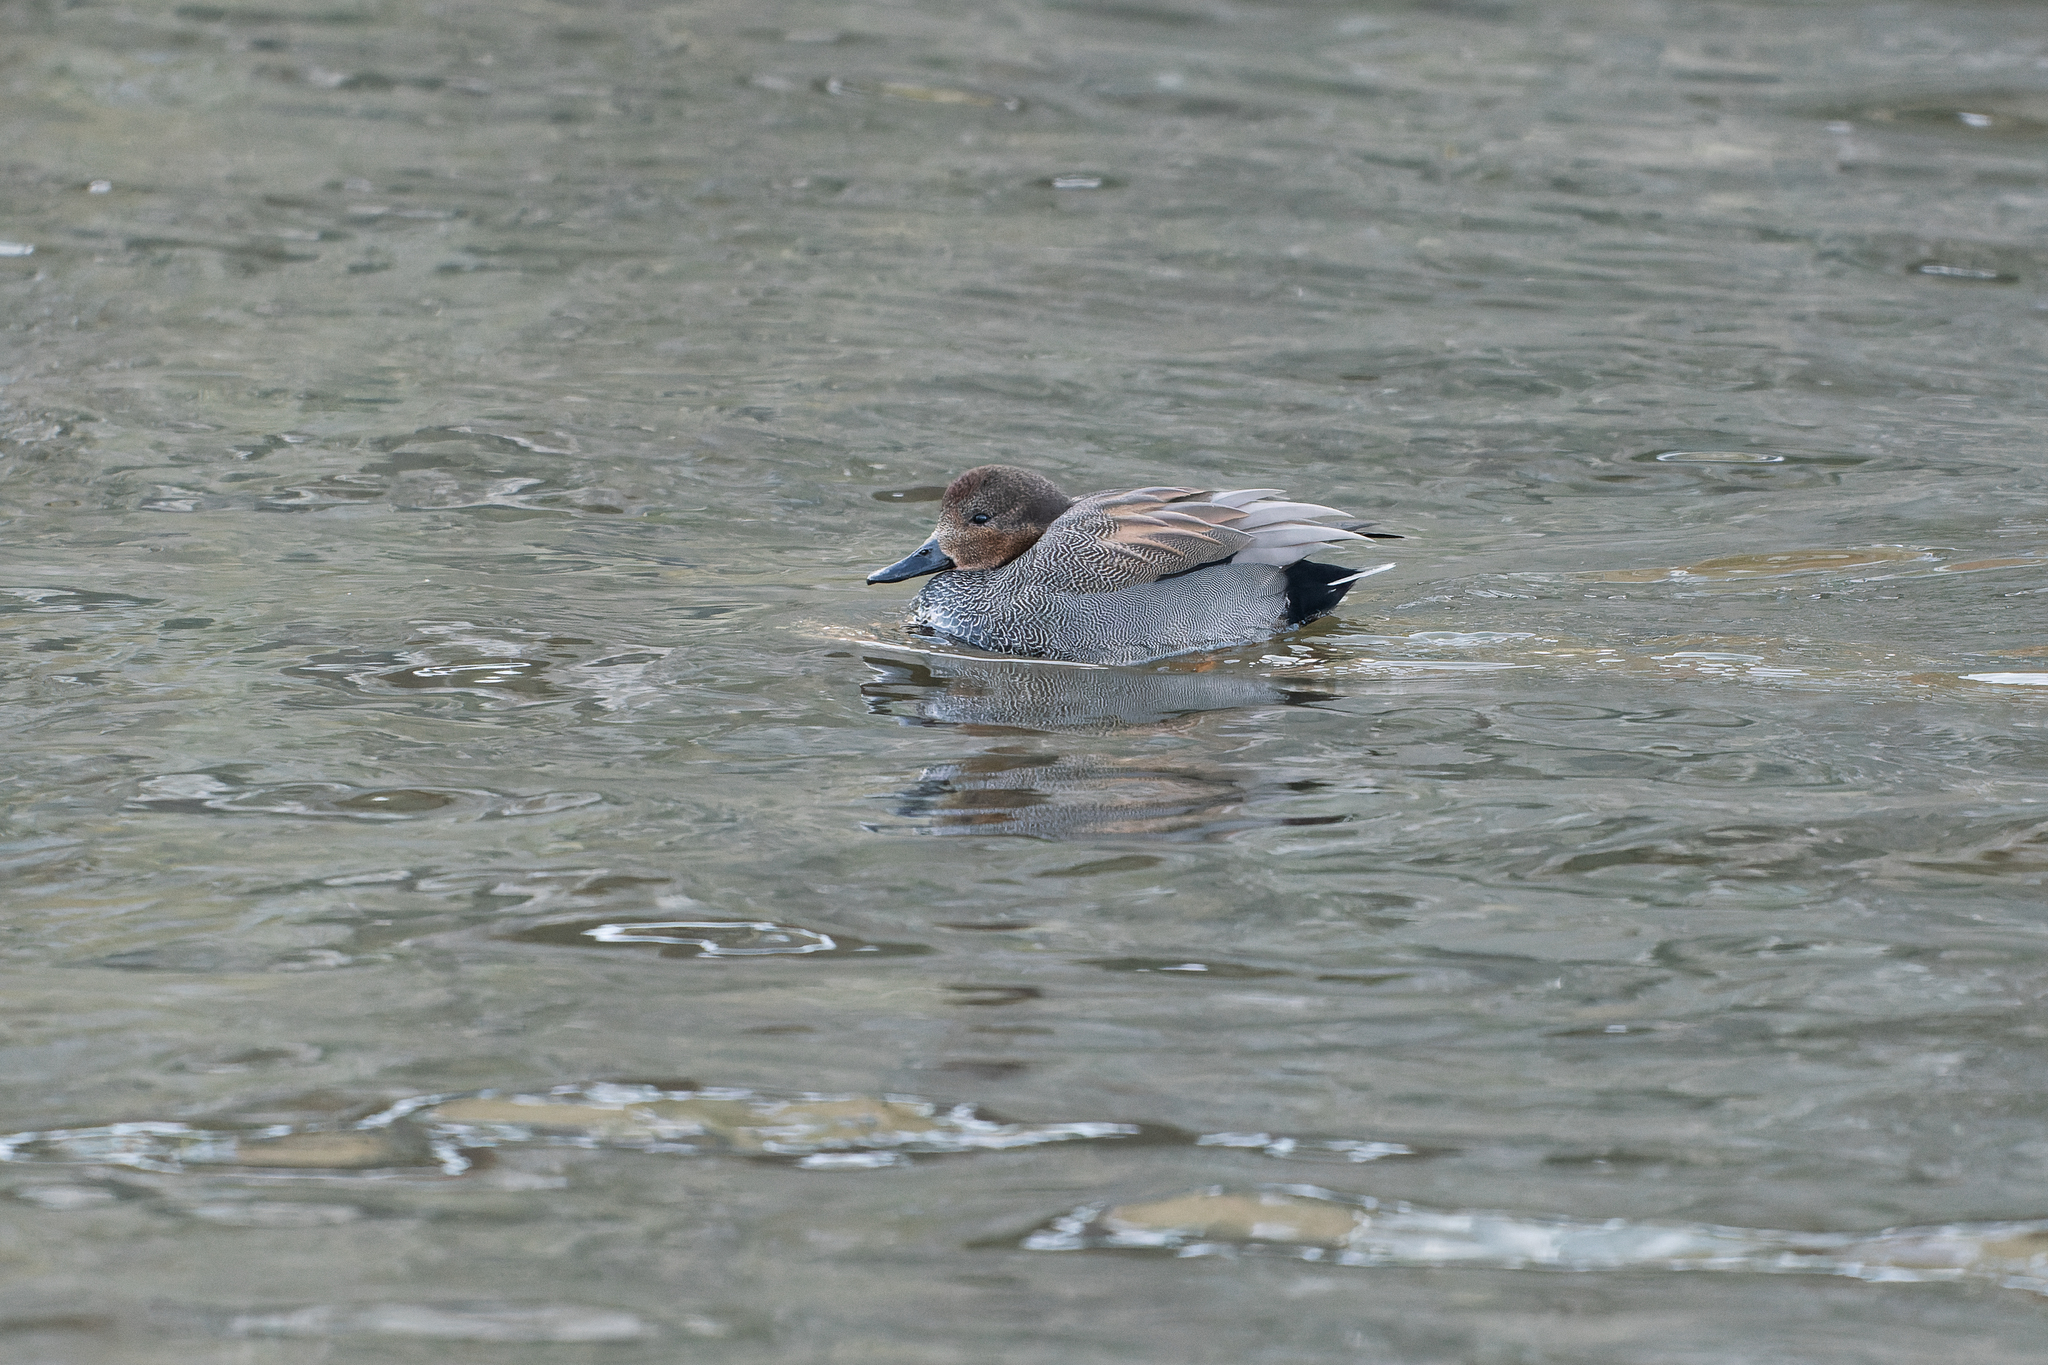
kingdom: Animalia
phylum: Chordata
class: Aves
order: Anseriformes
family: Anatidae
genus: Mareca
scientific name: Mareca strepera
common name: Gadwall
